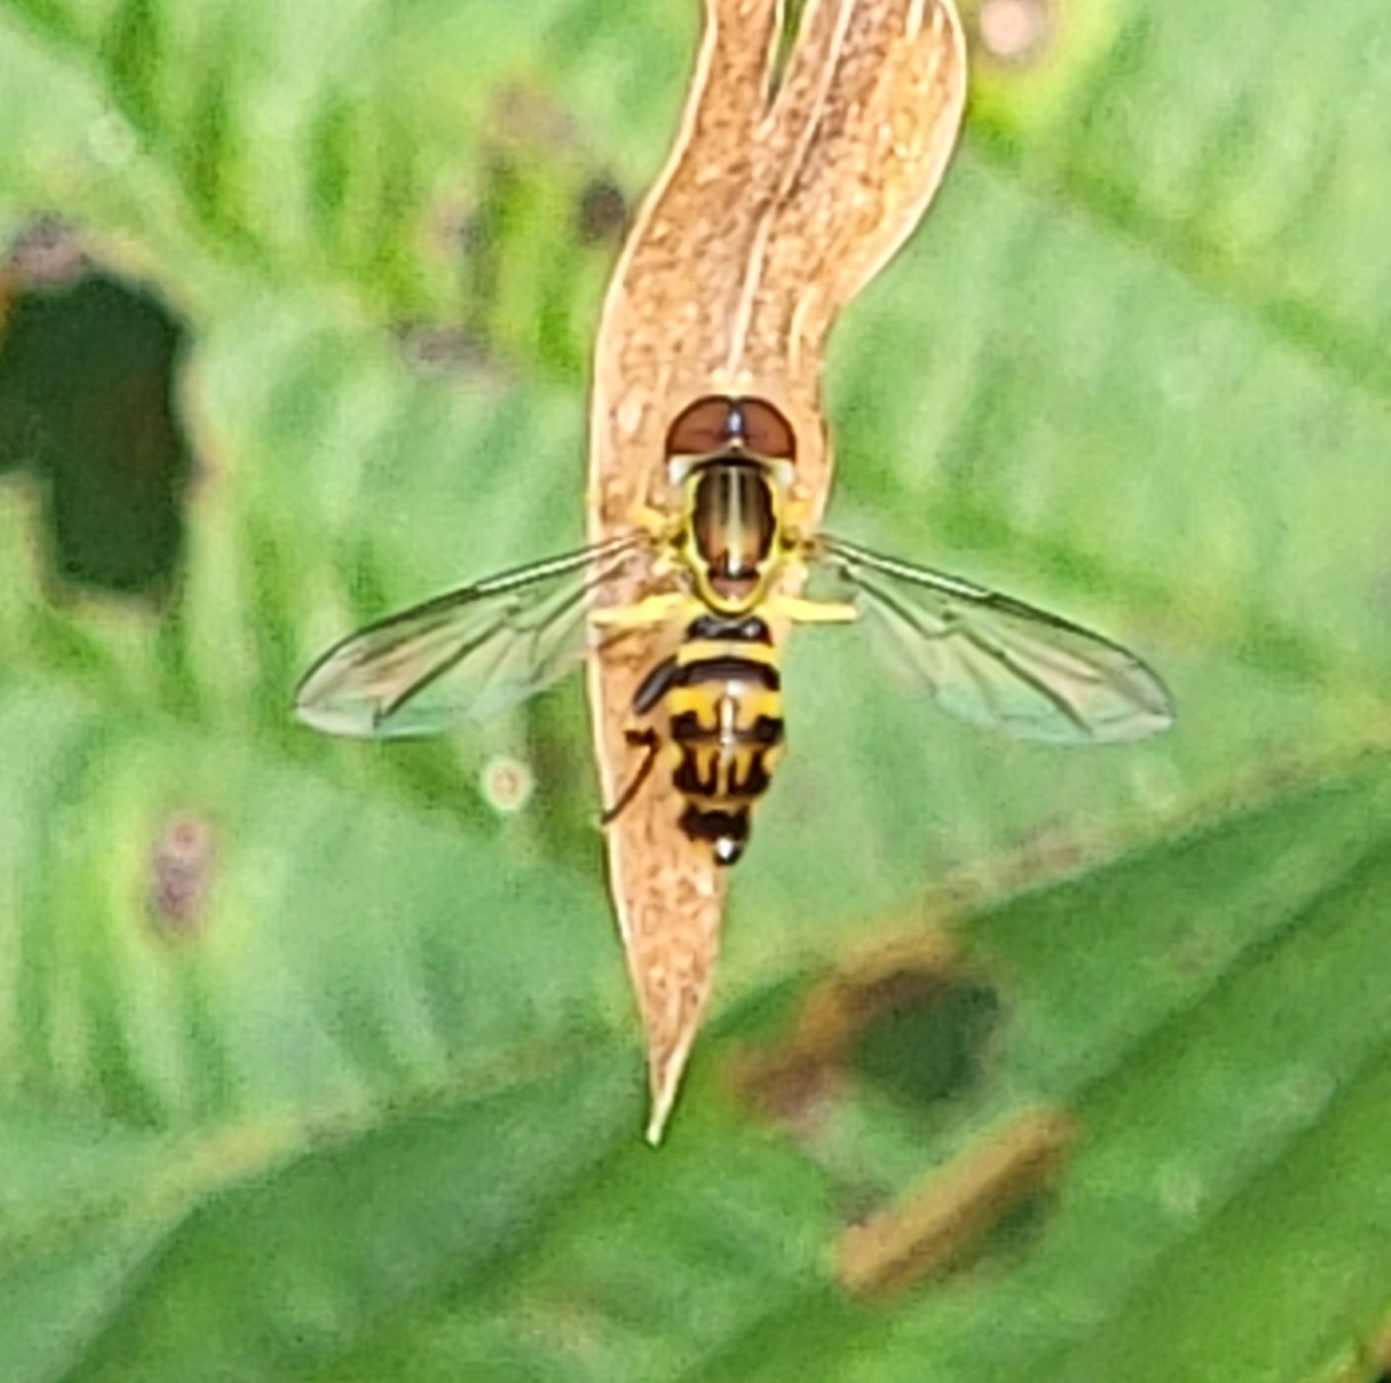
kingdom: Animalia
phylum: Arthropoda
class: Insecta
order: Diptera
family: Syrphidae
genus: Toxomerus
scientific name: Toxomerus geminatus
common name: Eastern calligrapher
